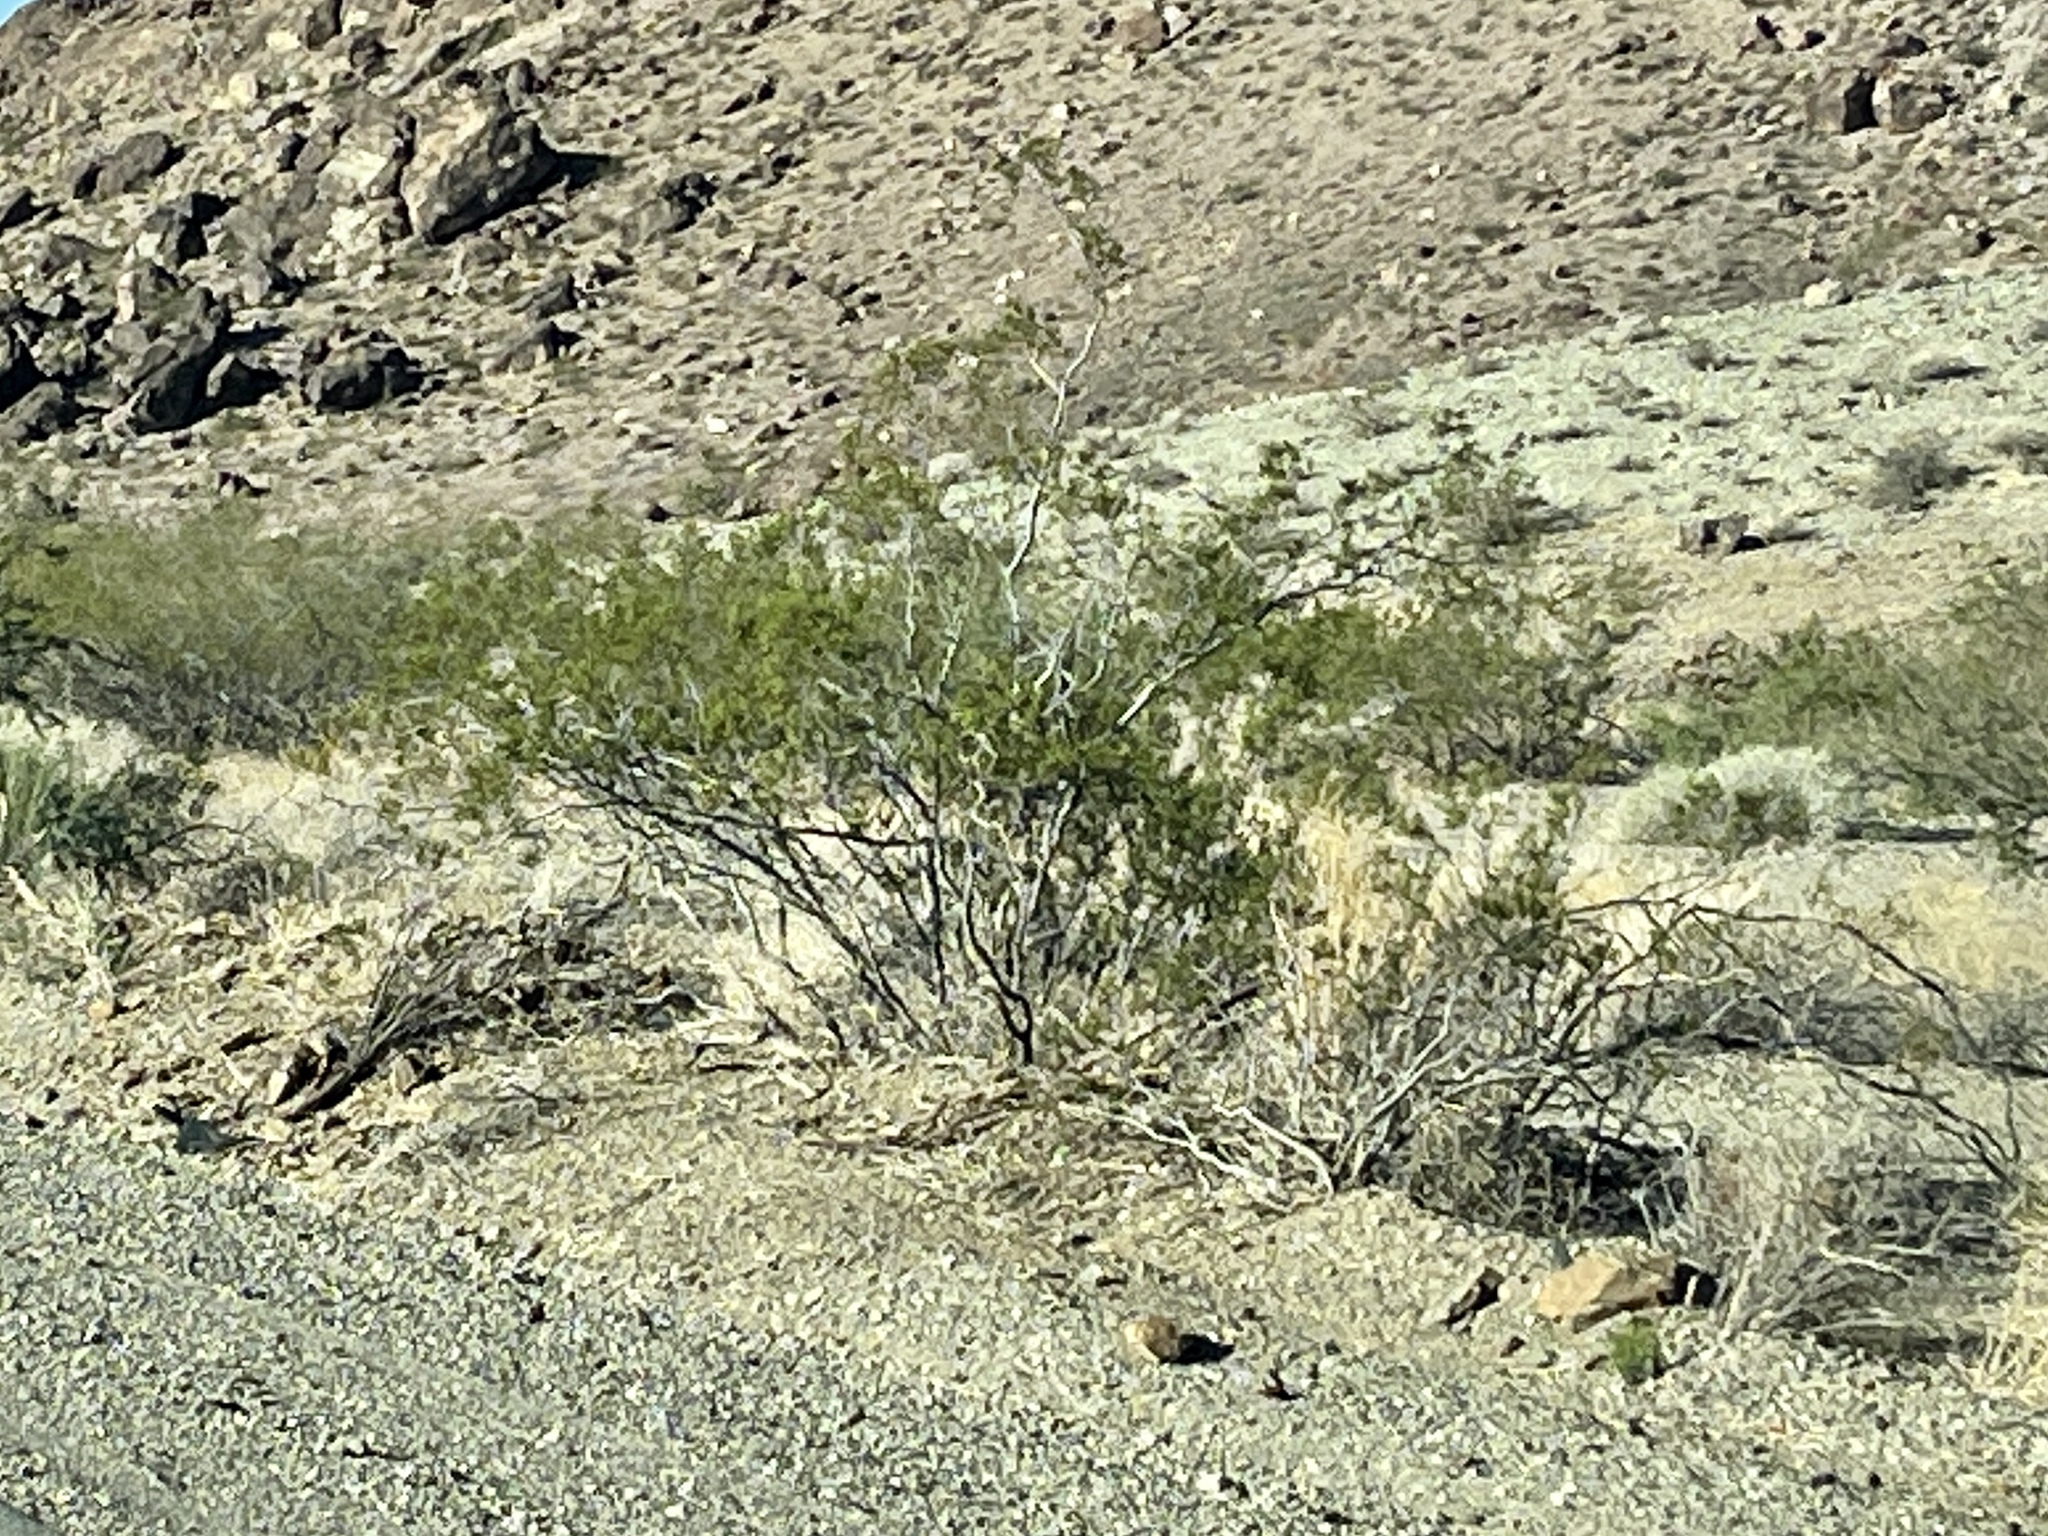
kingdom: Plantae
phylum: Tracheophyta
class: Magnoliopsida
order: Zygophyllales
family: Zygophyllaceae
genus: Larrea
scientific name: Larrea tridentata
